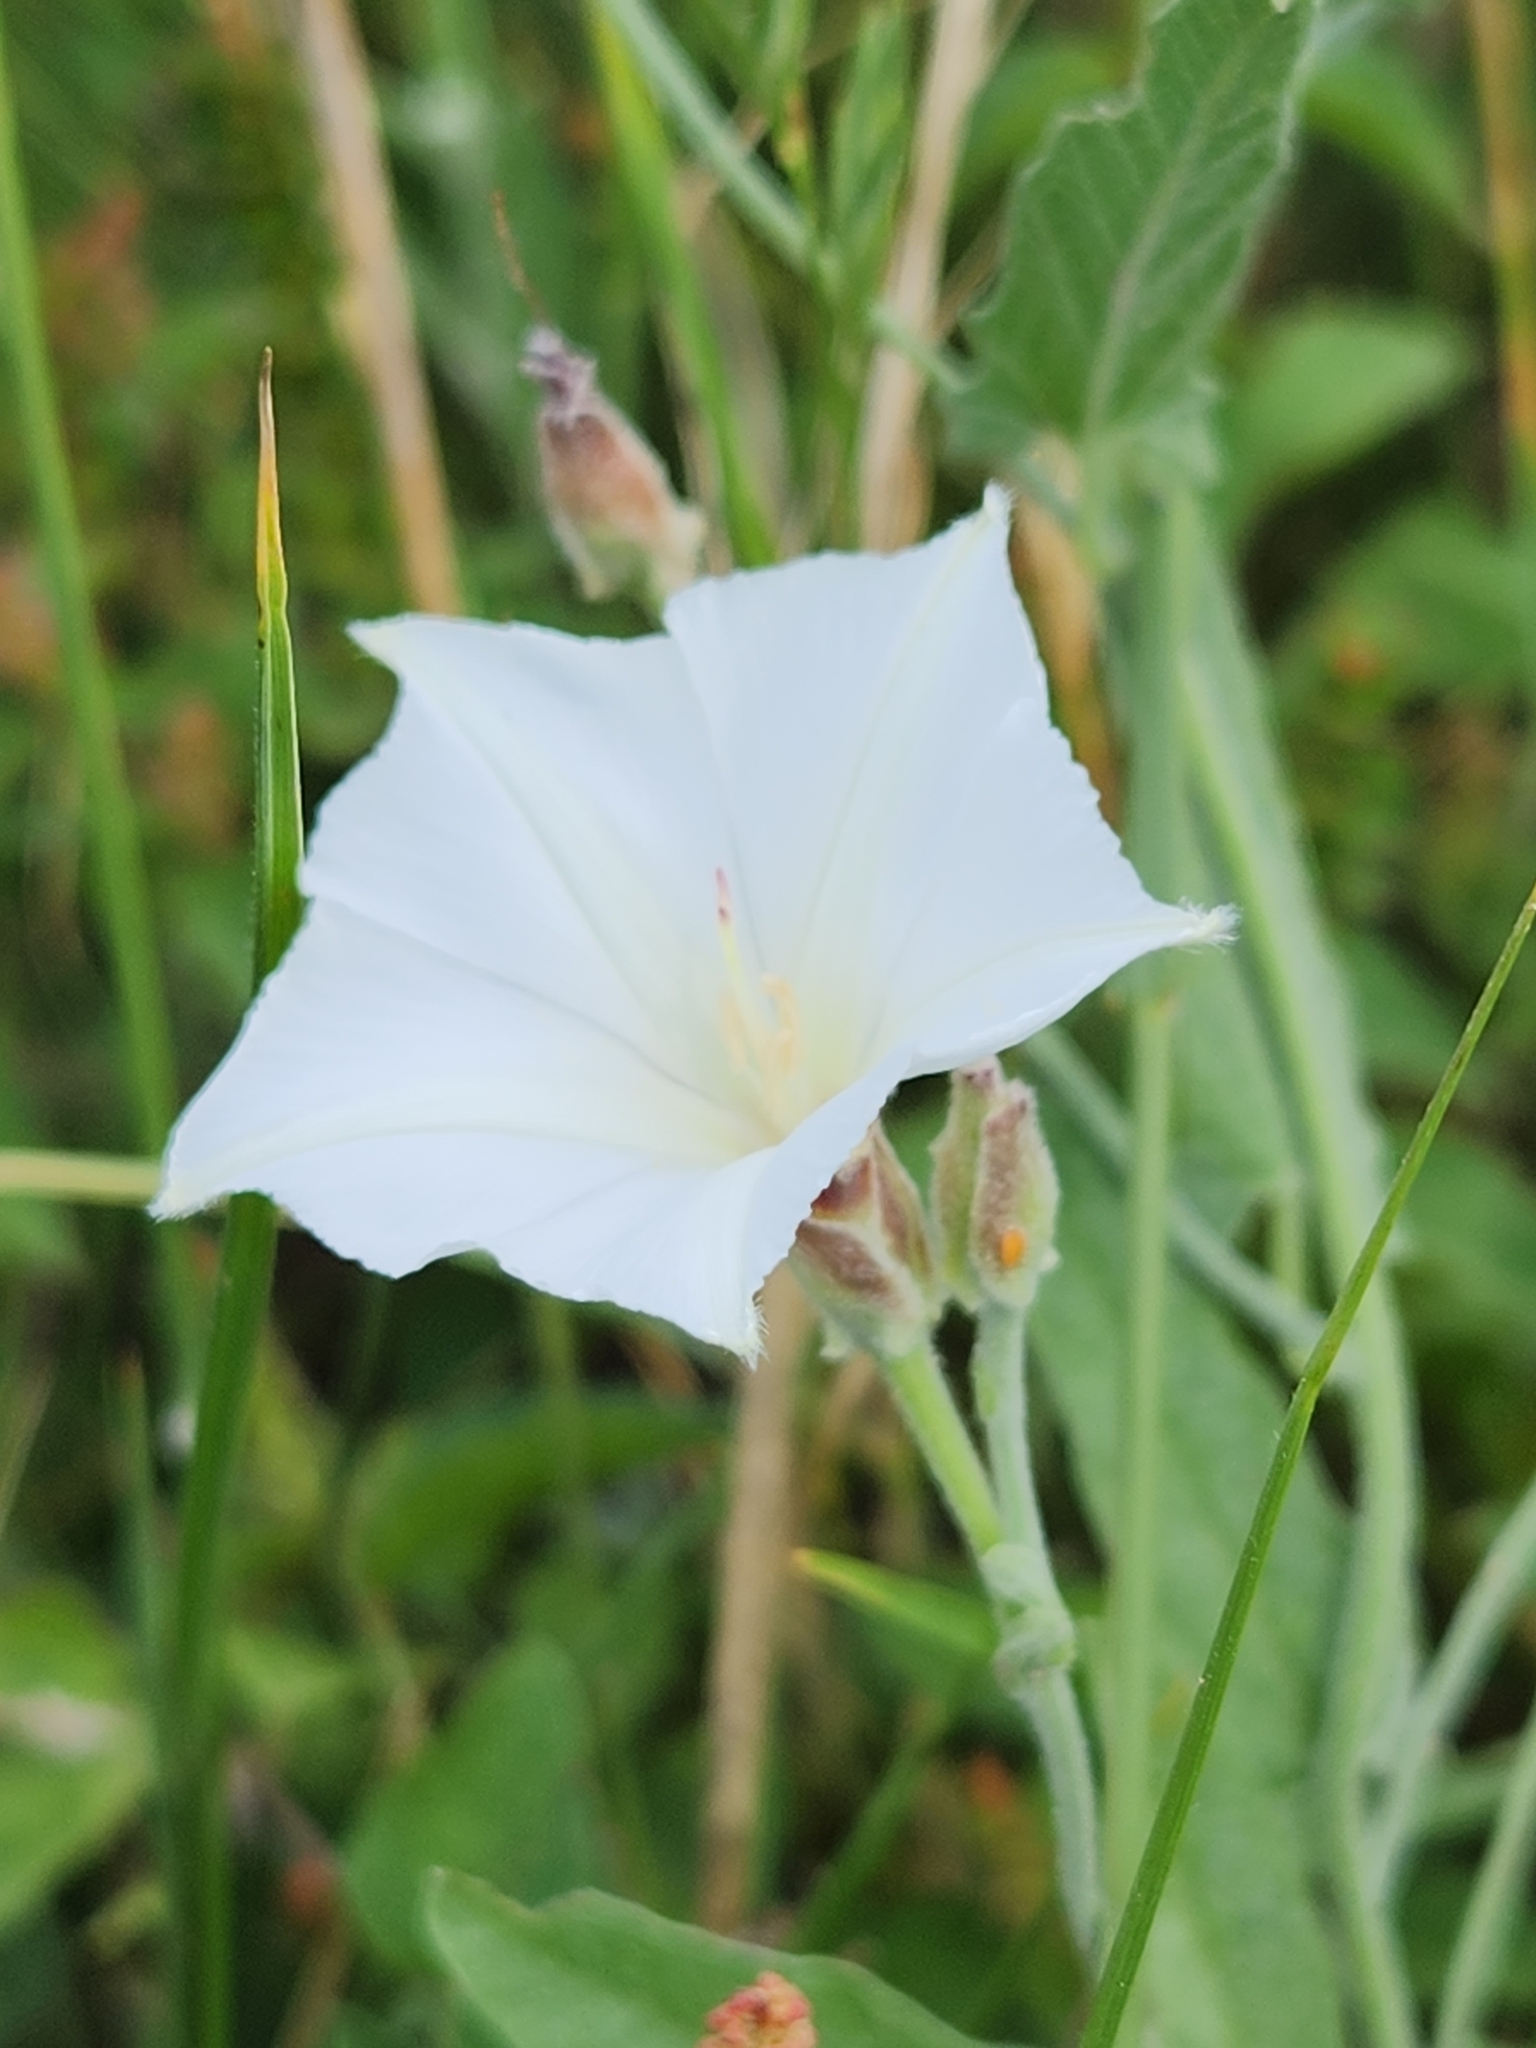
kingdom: Plantae
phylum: Tracheophyta
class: Magnoliopsida
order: Solanales
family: Convolvulaceae
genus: Convolvulus
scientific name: Convolvulus equitans
